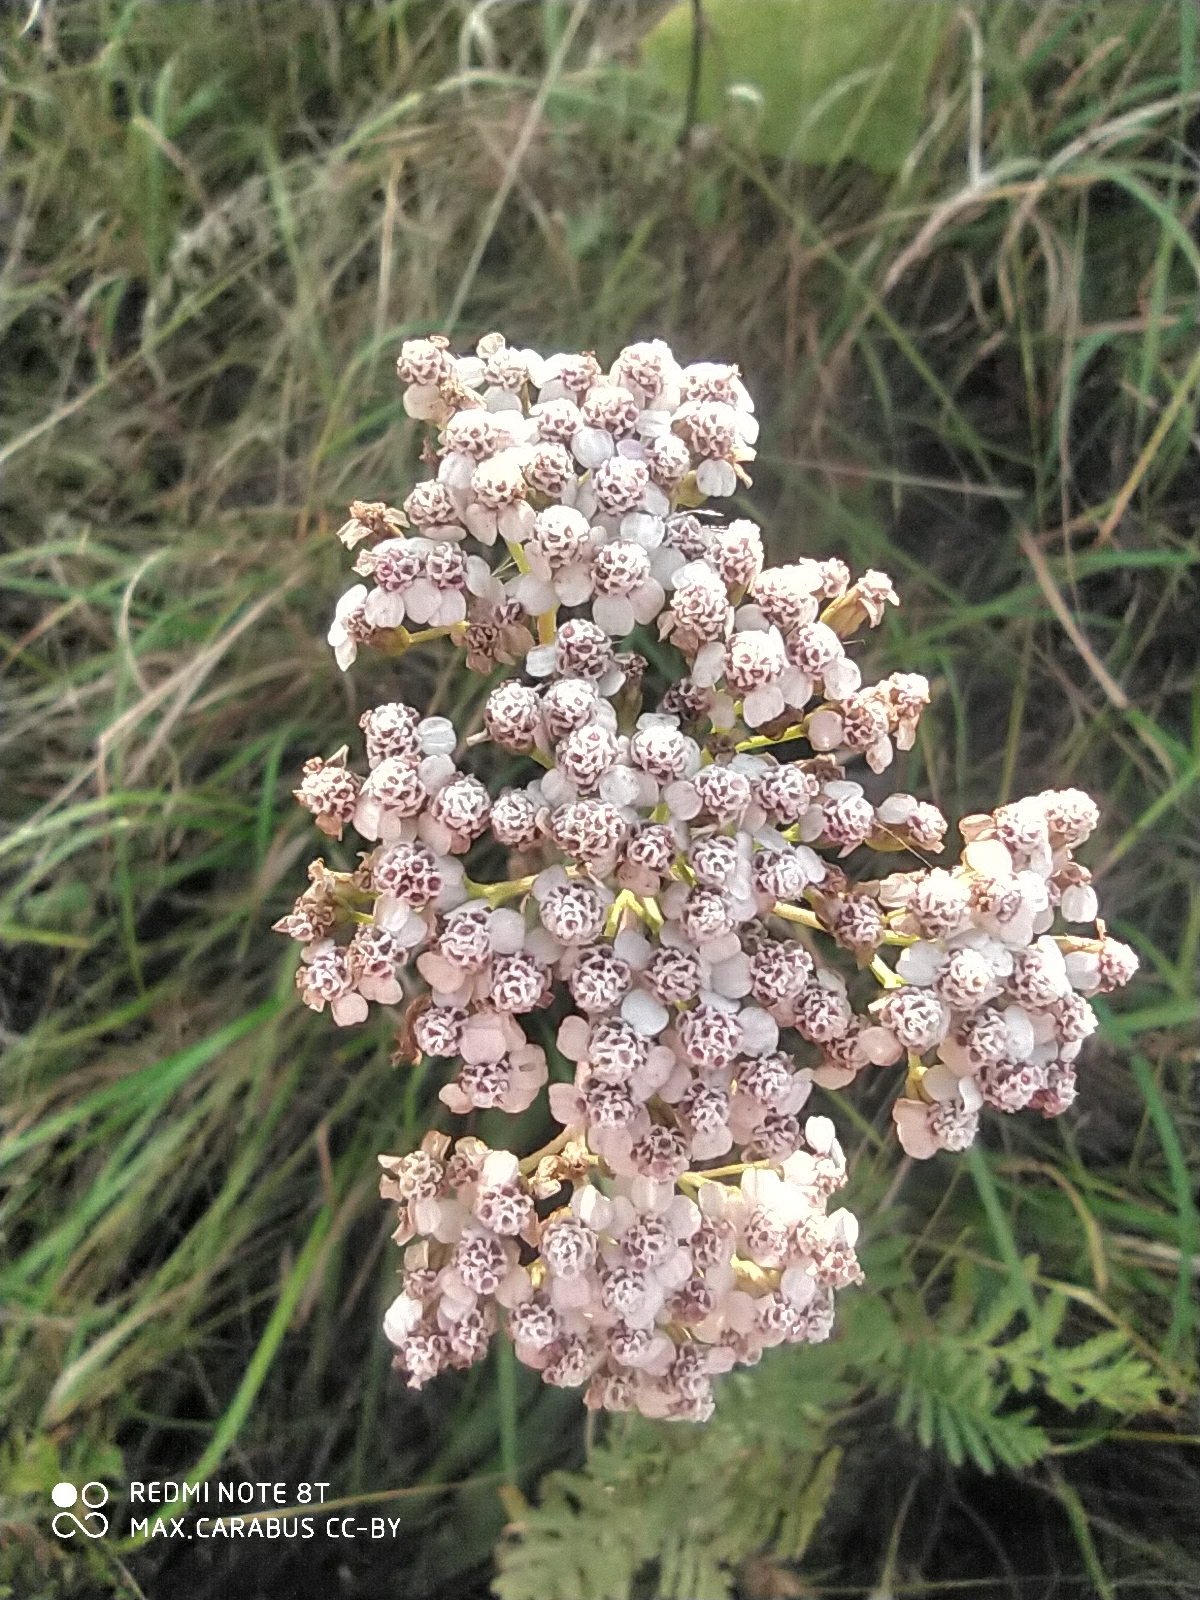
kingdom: Plantae
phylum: Tracheophyta
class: Magnoliopsida
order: Asterales
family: Asteraceae
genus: Achillea
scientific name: Achillea millefolium
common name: Yarrow
